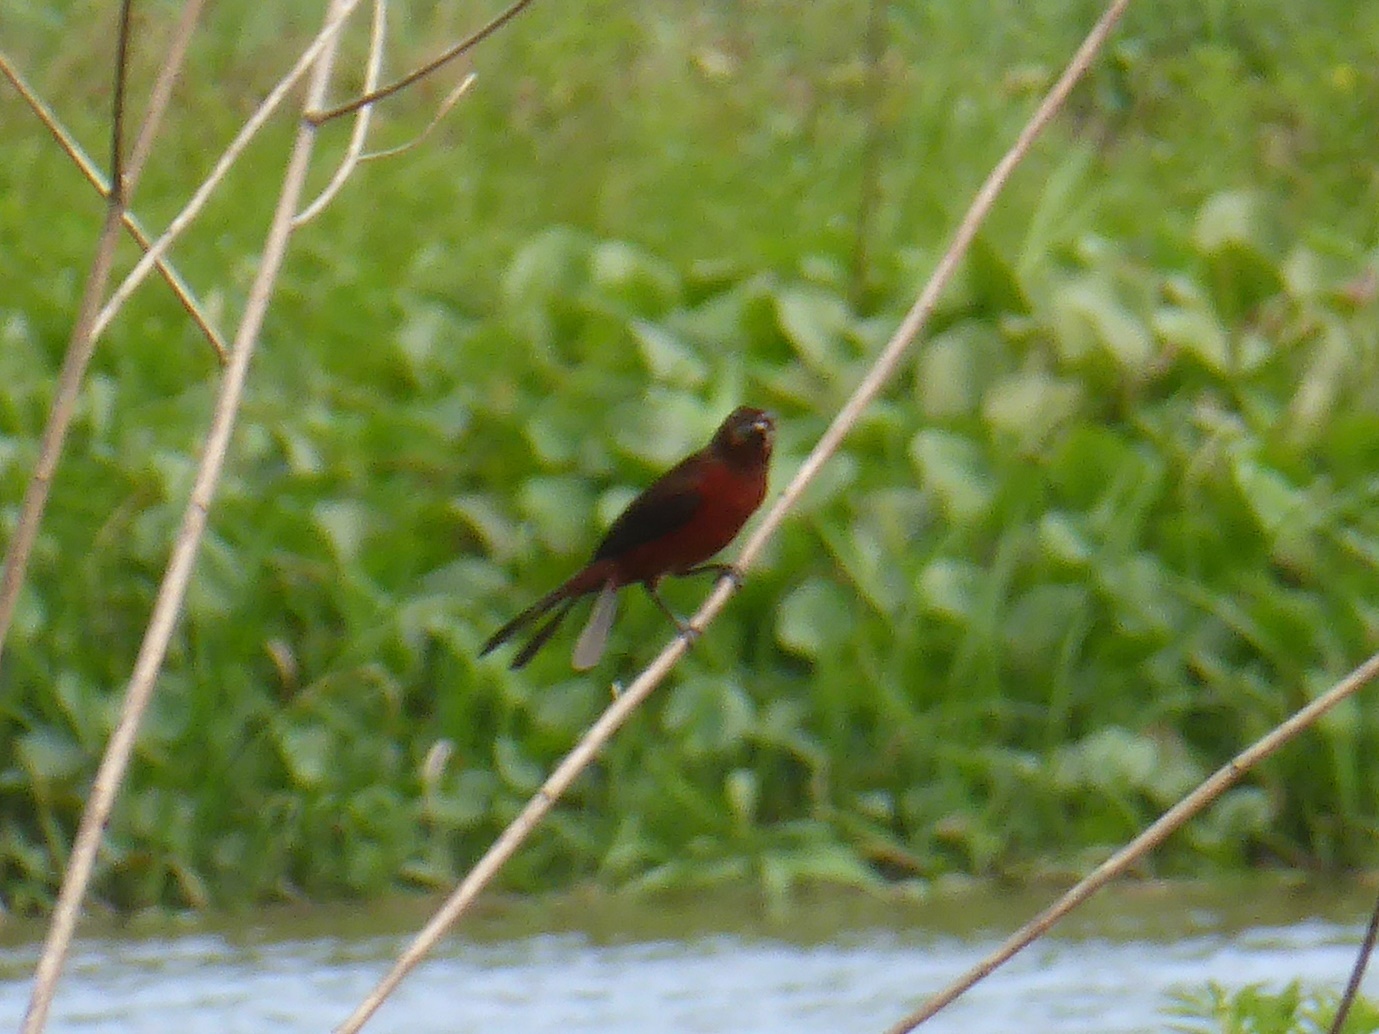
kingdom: Animalia
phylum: Chordata
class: Aves
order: Passeriformes
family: Thraupidae
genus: Ramphocelus
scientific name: Ramphocelus carbo
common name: Silver-beaked tanager
